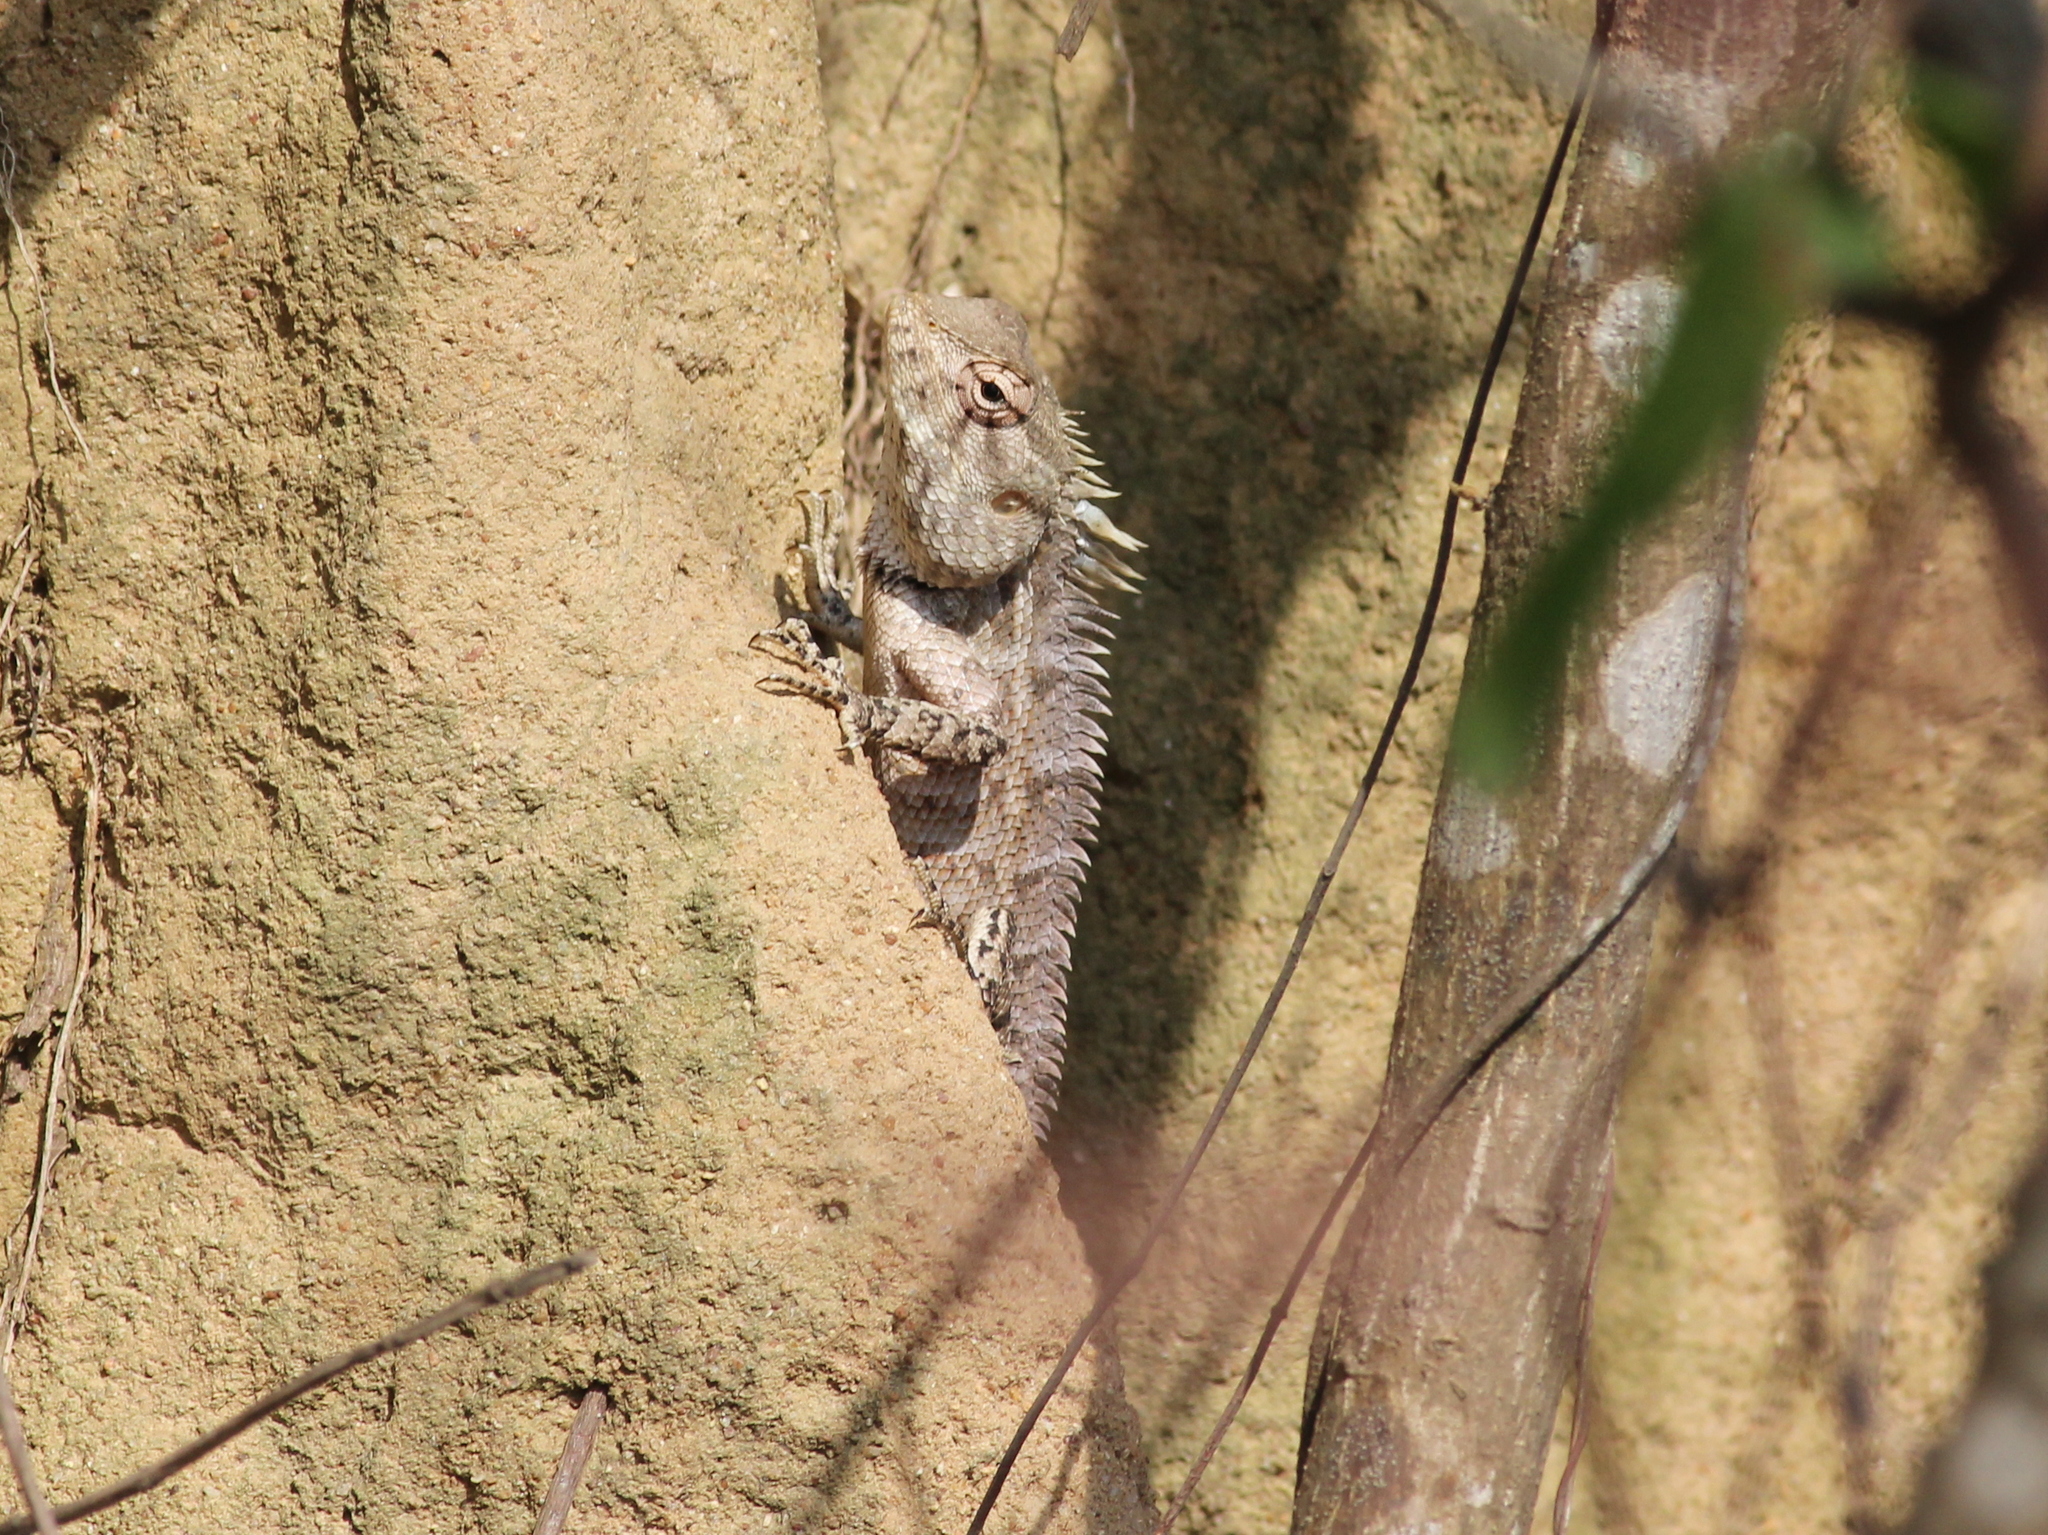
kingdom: Animalia
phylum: Chordata
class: Squamata
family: Agamidae
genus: Calotes
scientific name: Calotes versicolor
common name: Oriental garden lizard
